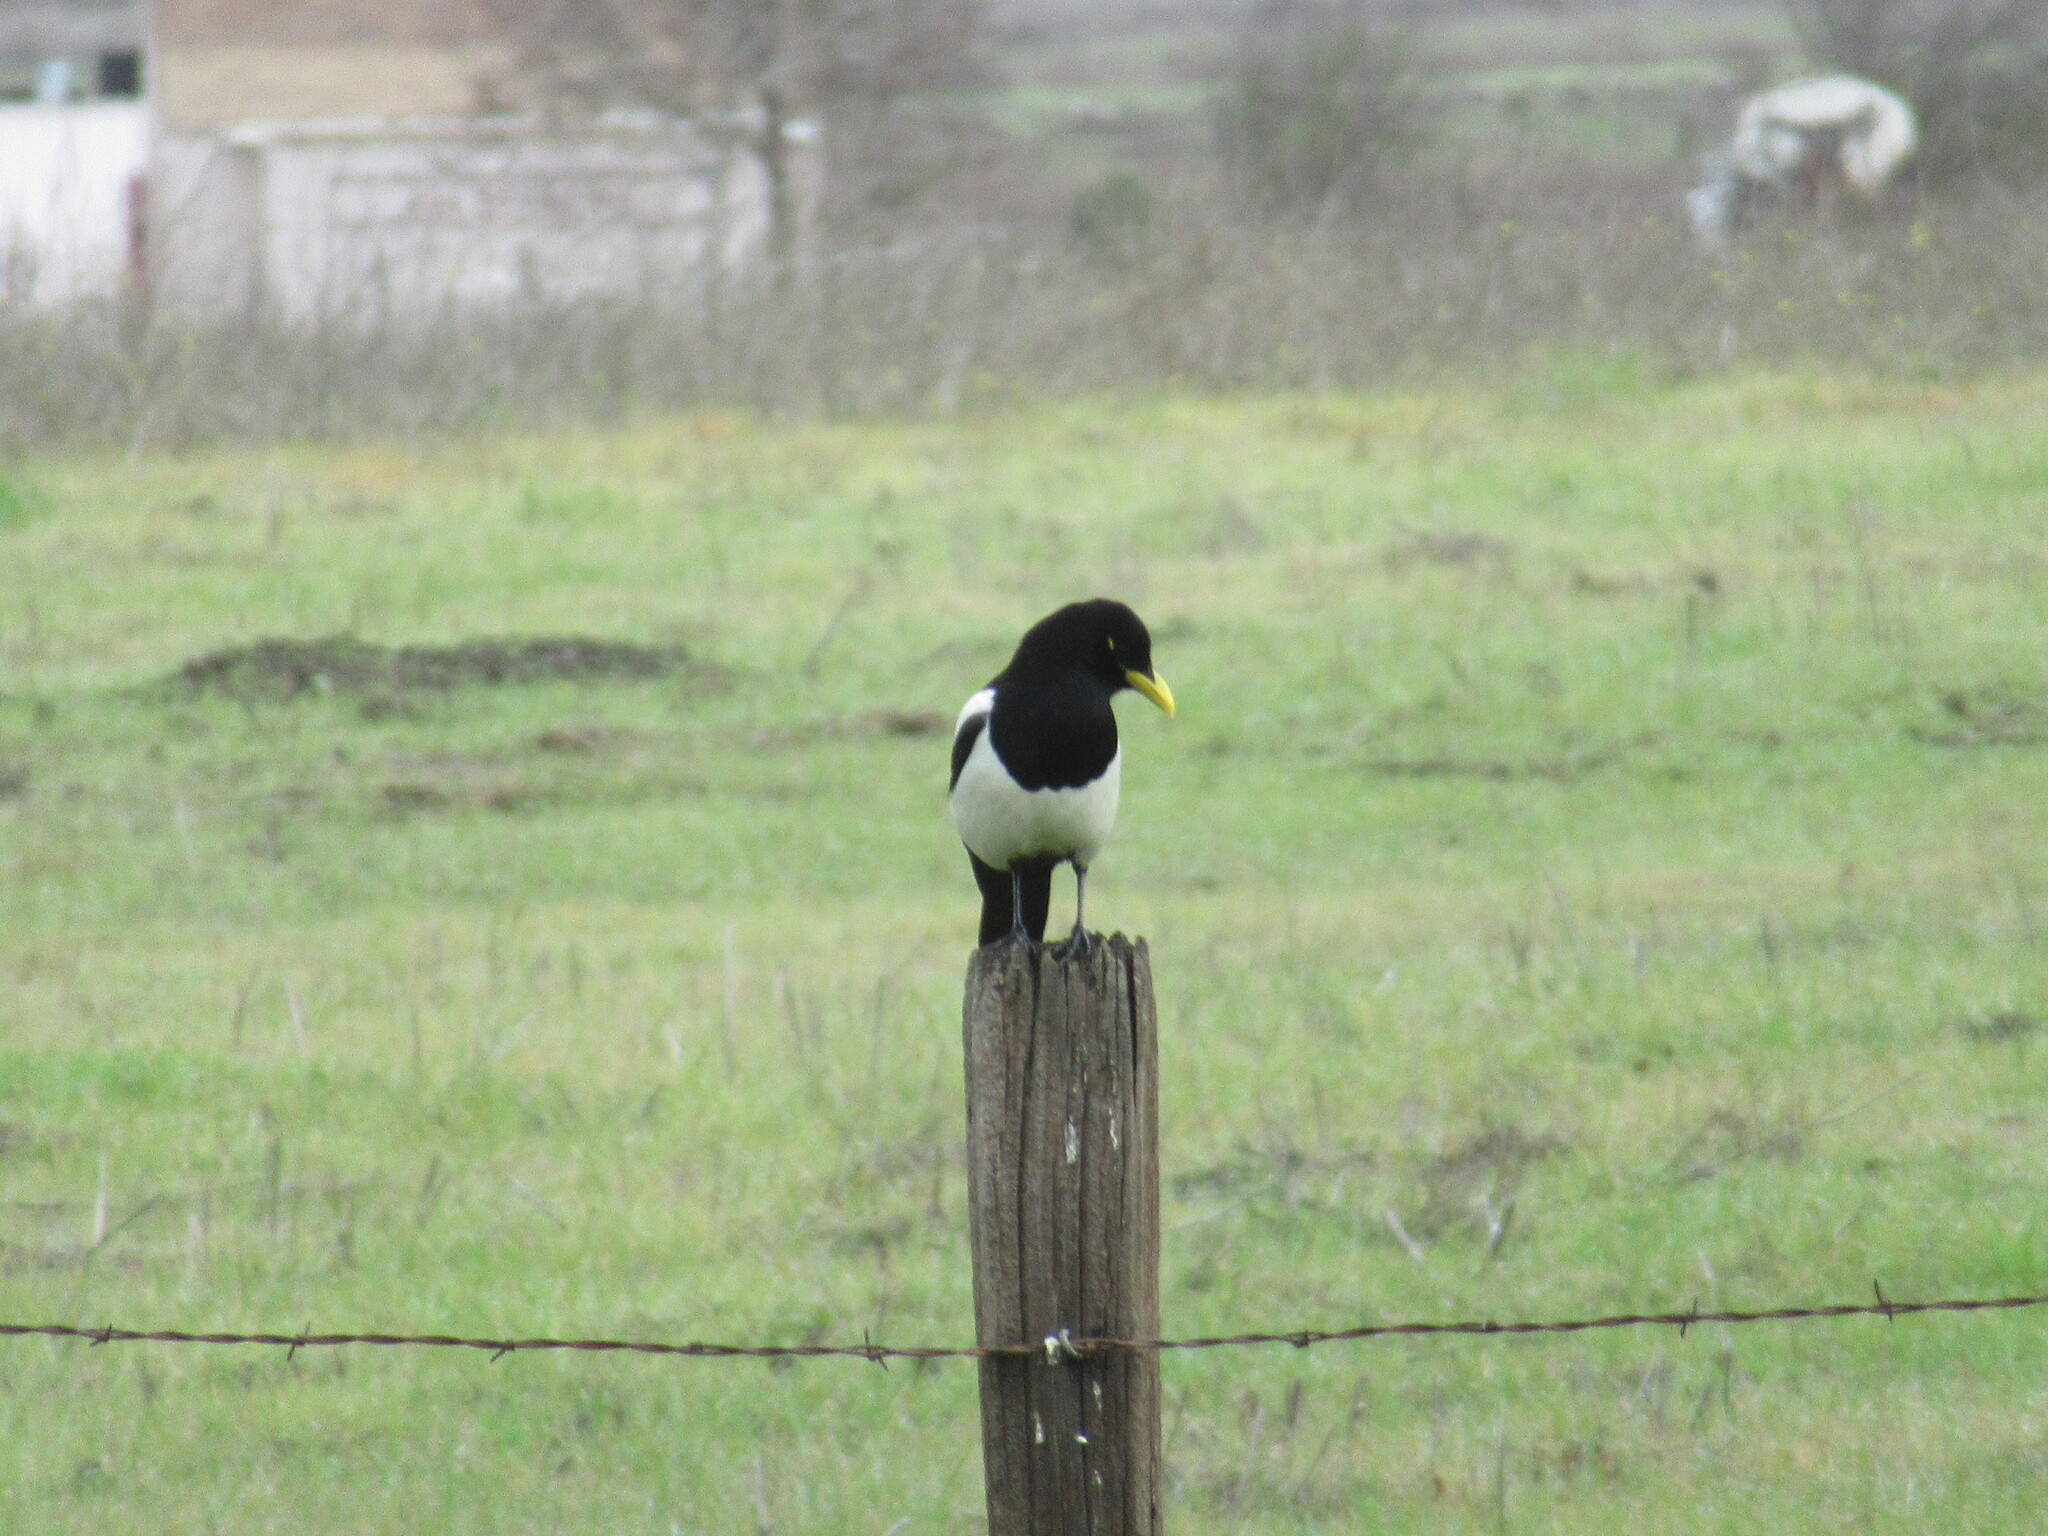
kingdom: Animalia
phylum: Chordata
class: Aves
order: Passeriformes
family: Corvidae
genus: Pica
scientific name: Pica nuttalli
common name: Yellow-billed magpie
